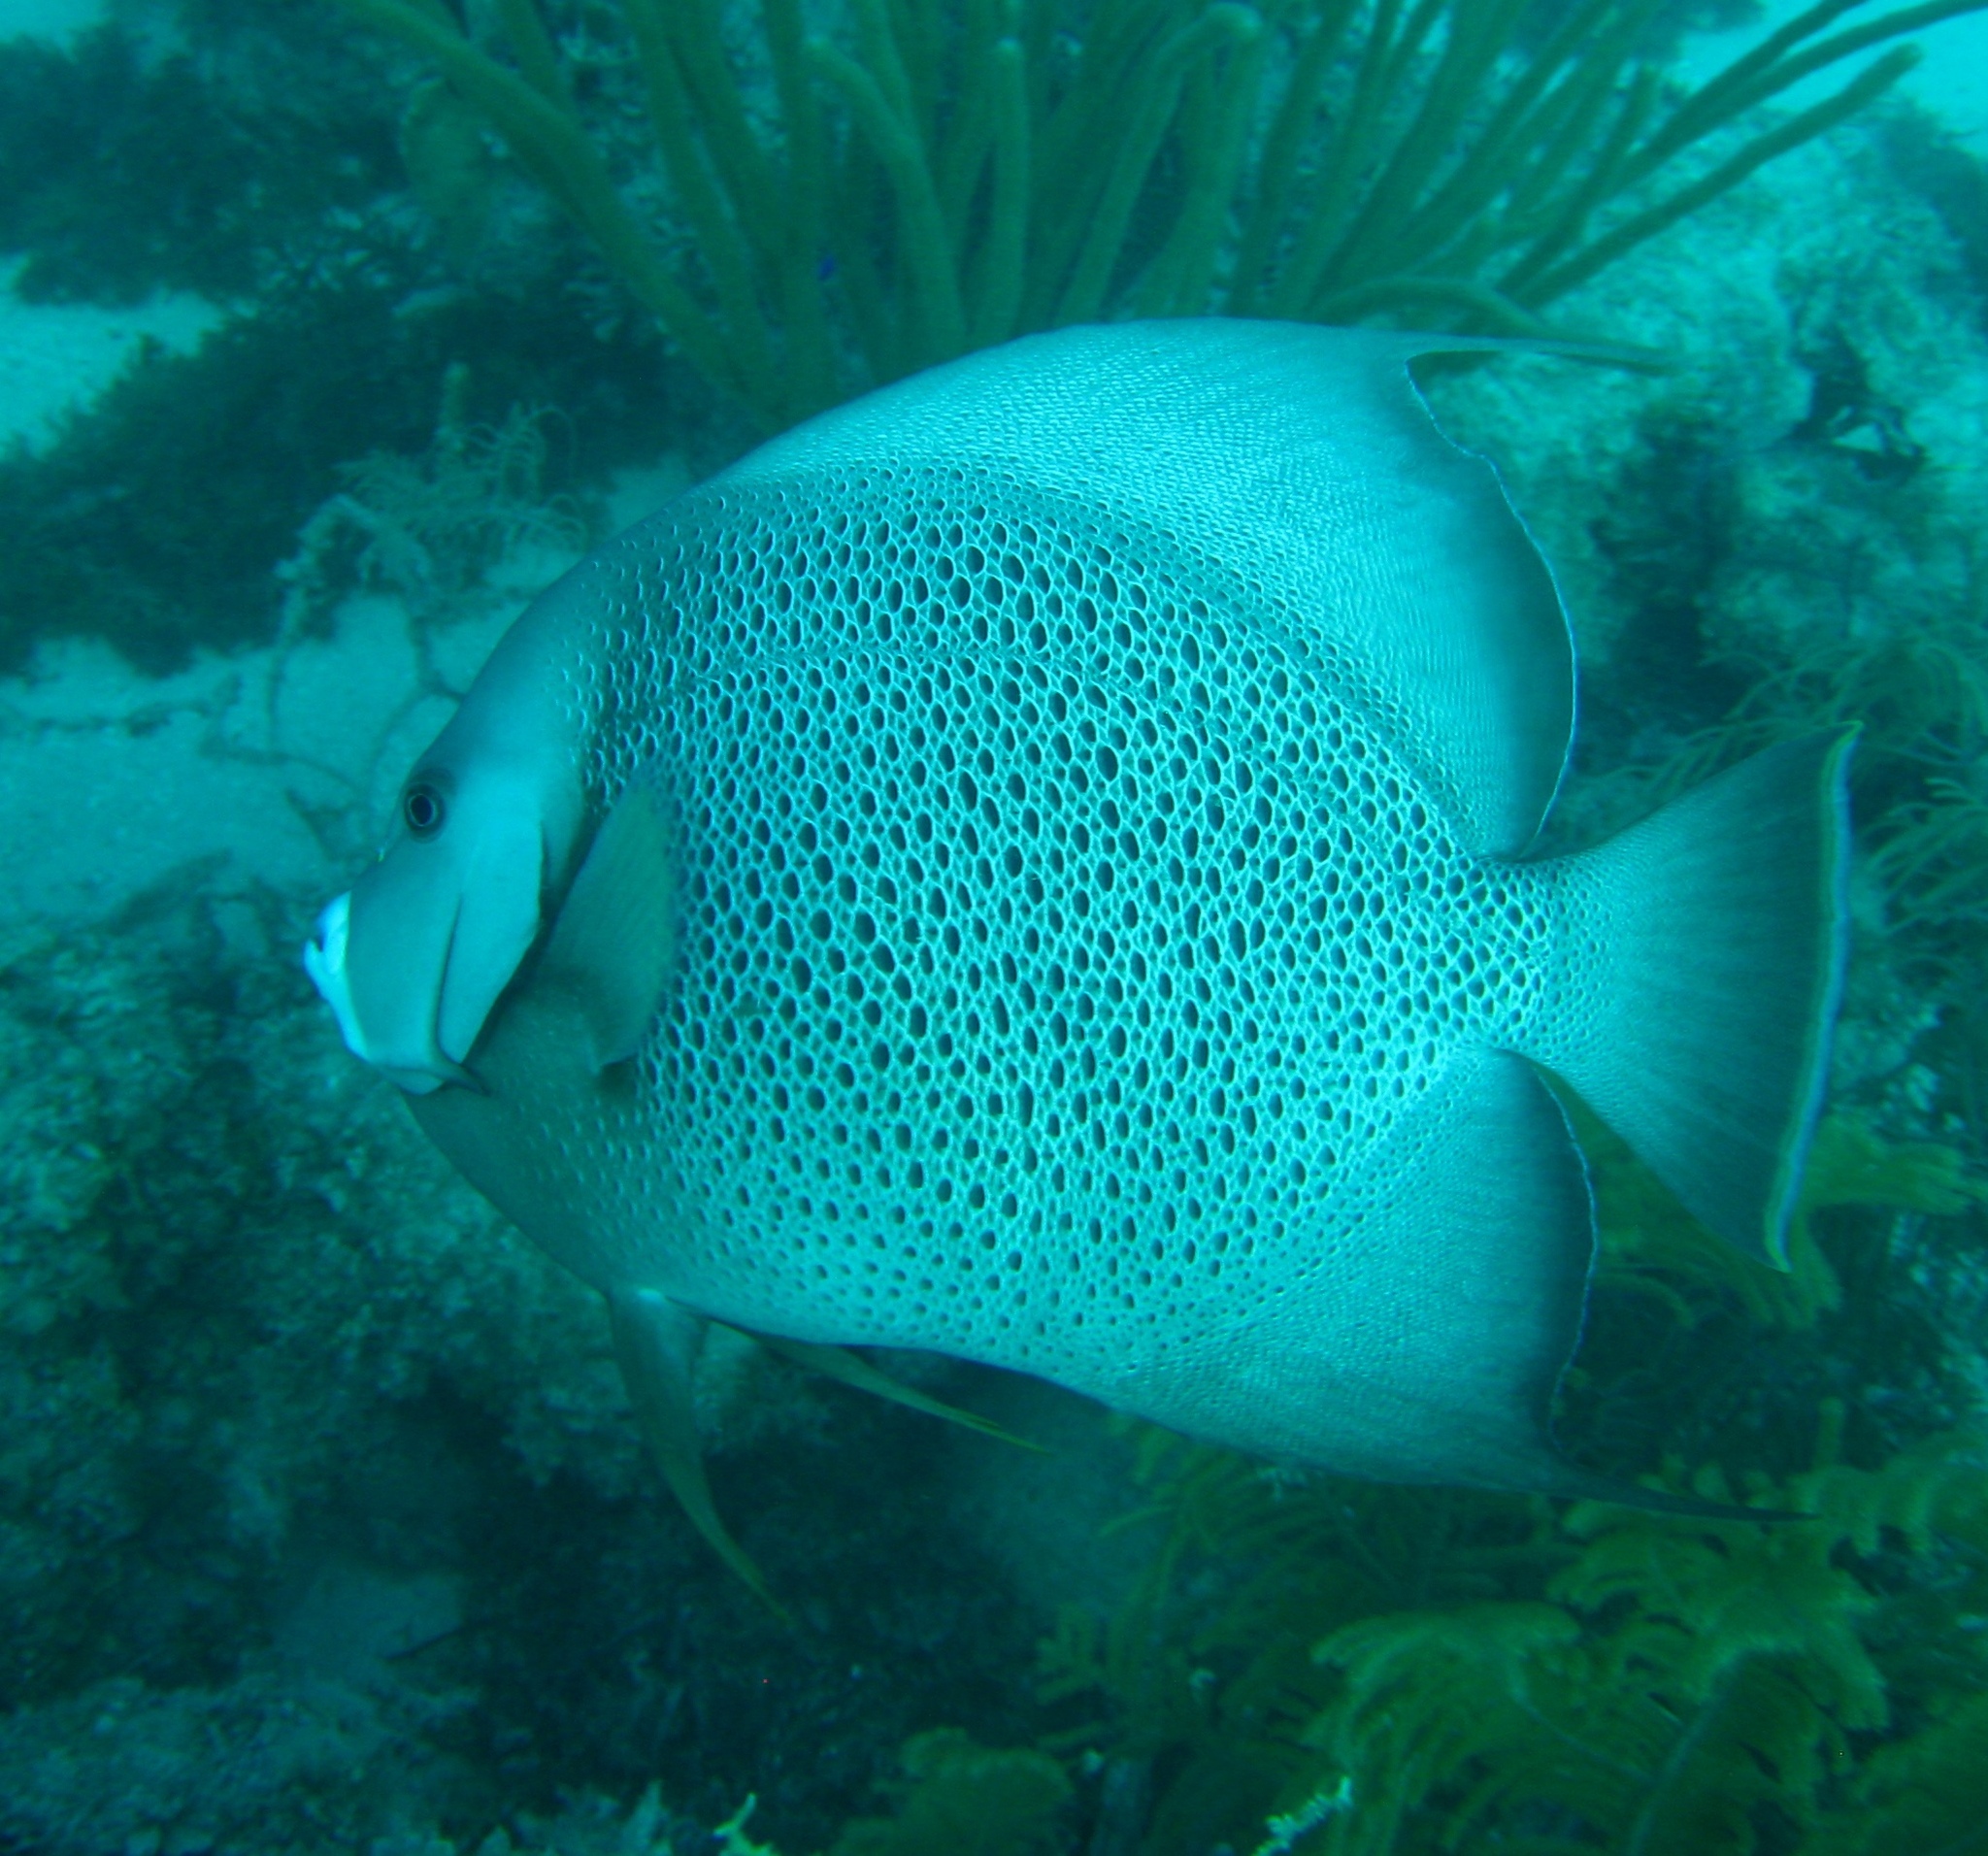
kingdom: Animalia
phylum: Chordata
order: Perciformes
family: Pomacanthidae
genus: Pomacanthus
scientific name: Pomacanthus arcuatus
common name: Gray angelfish
